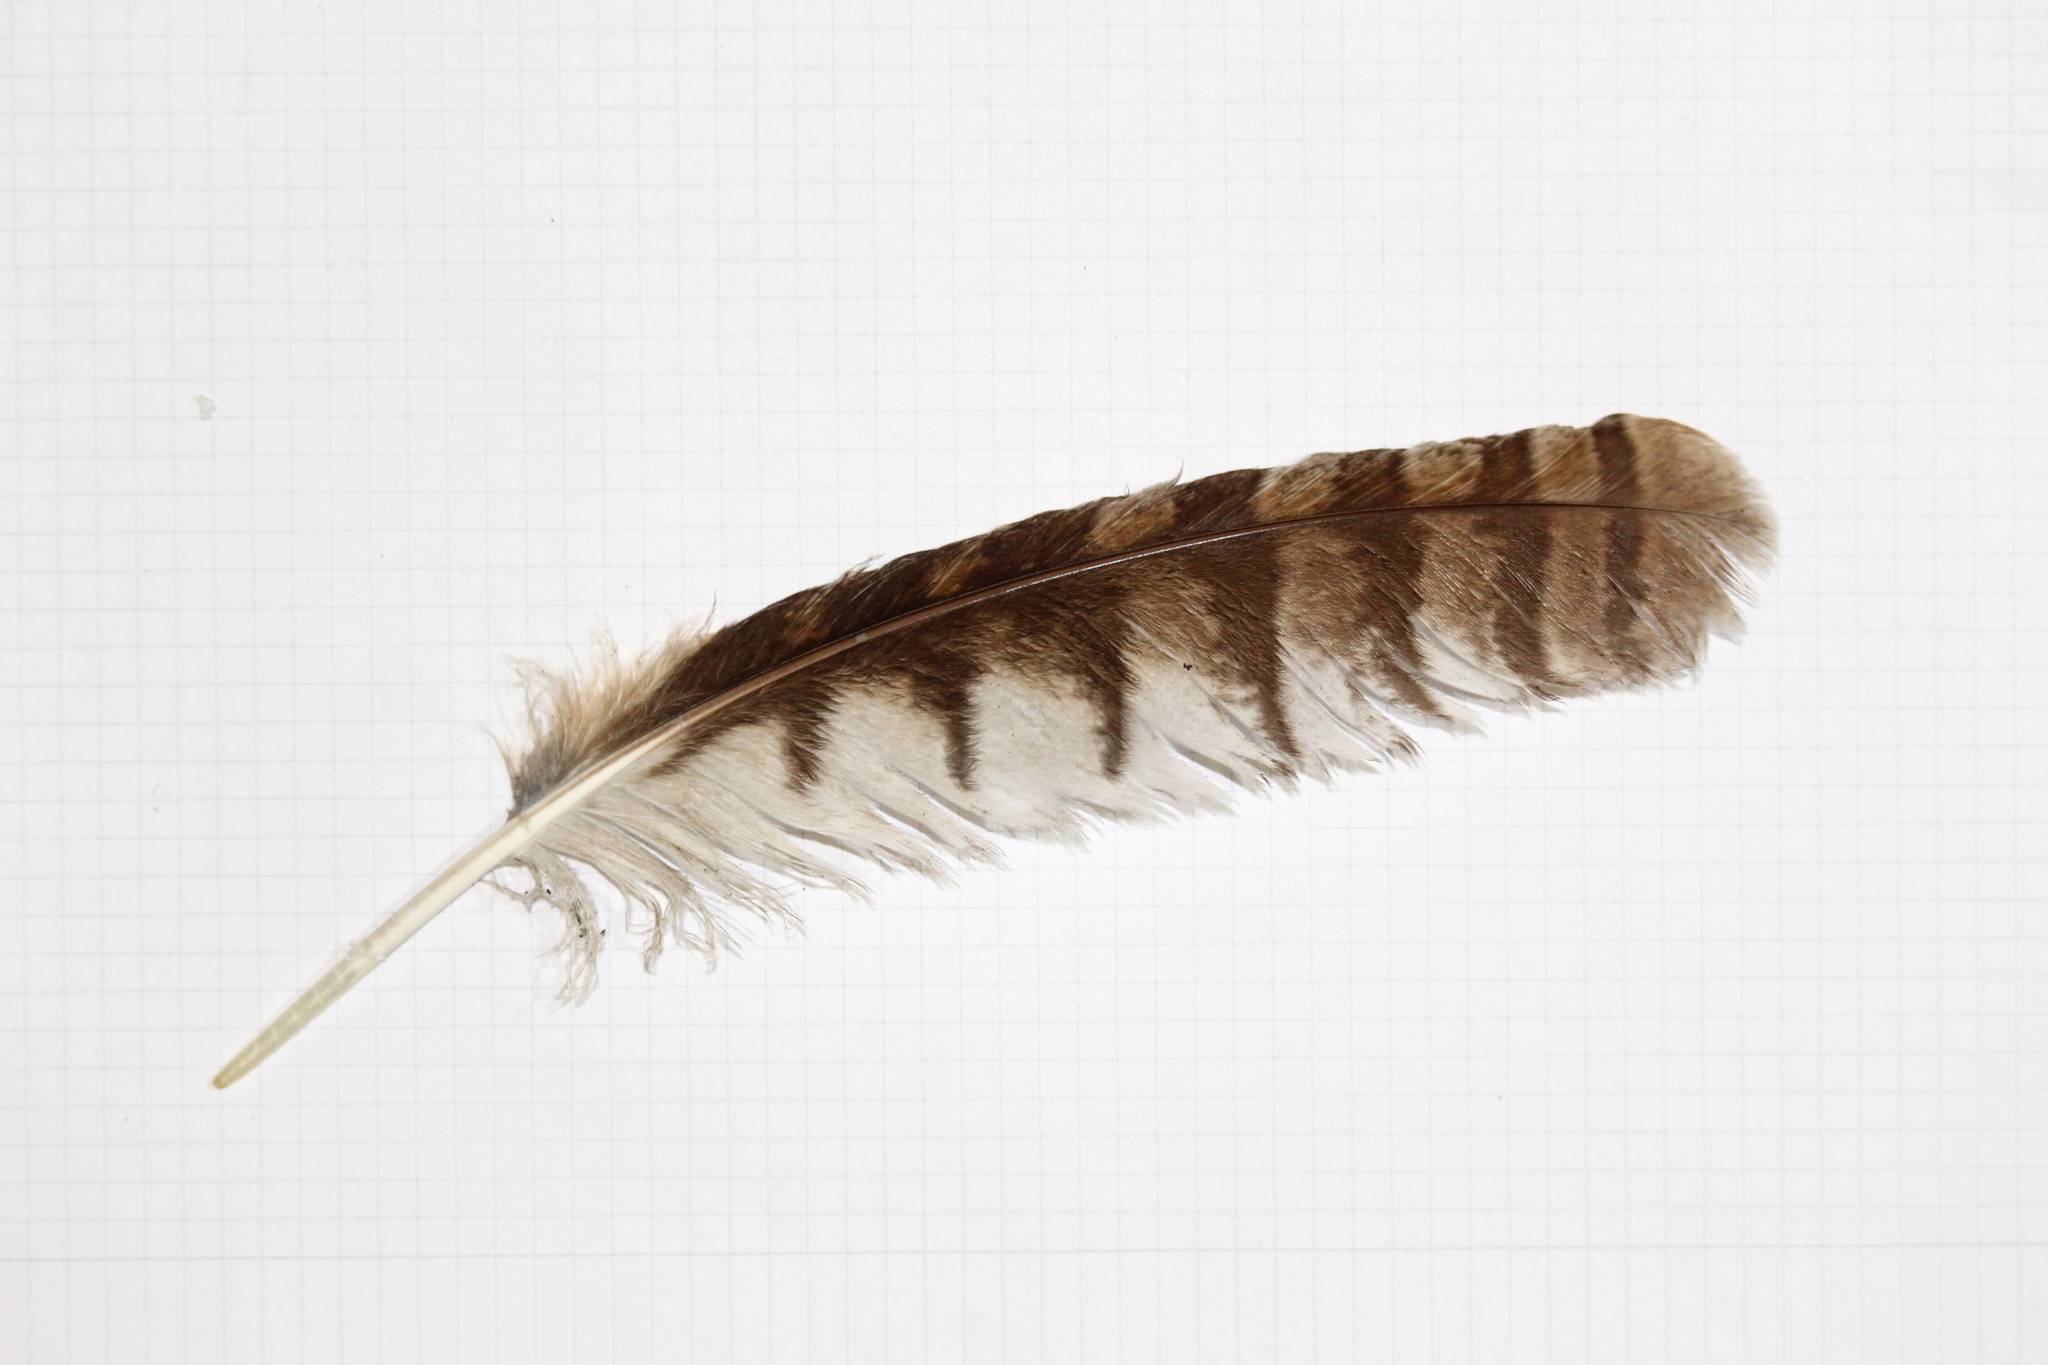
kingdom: Animalia
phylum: Chordata
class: Aves
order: Strigiformes
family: Strigidae
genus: Strix
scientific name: Strix aluco
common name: Tawny owl
